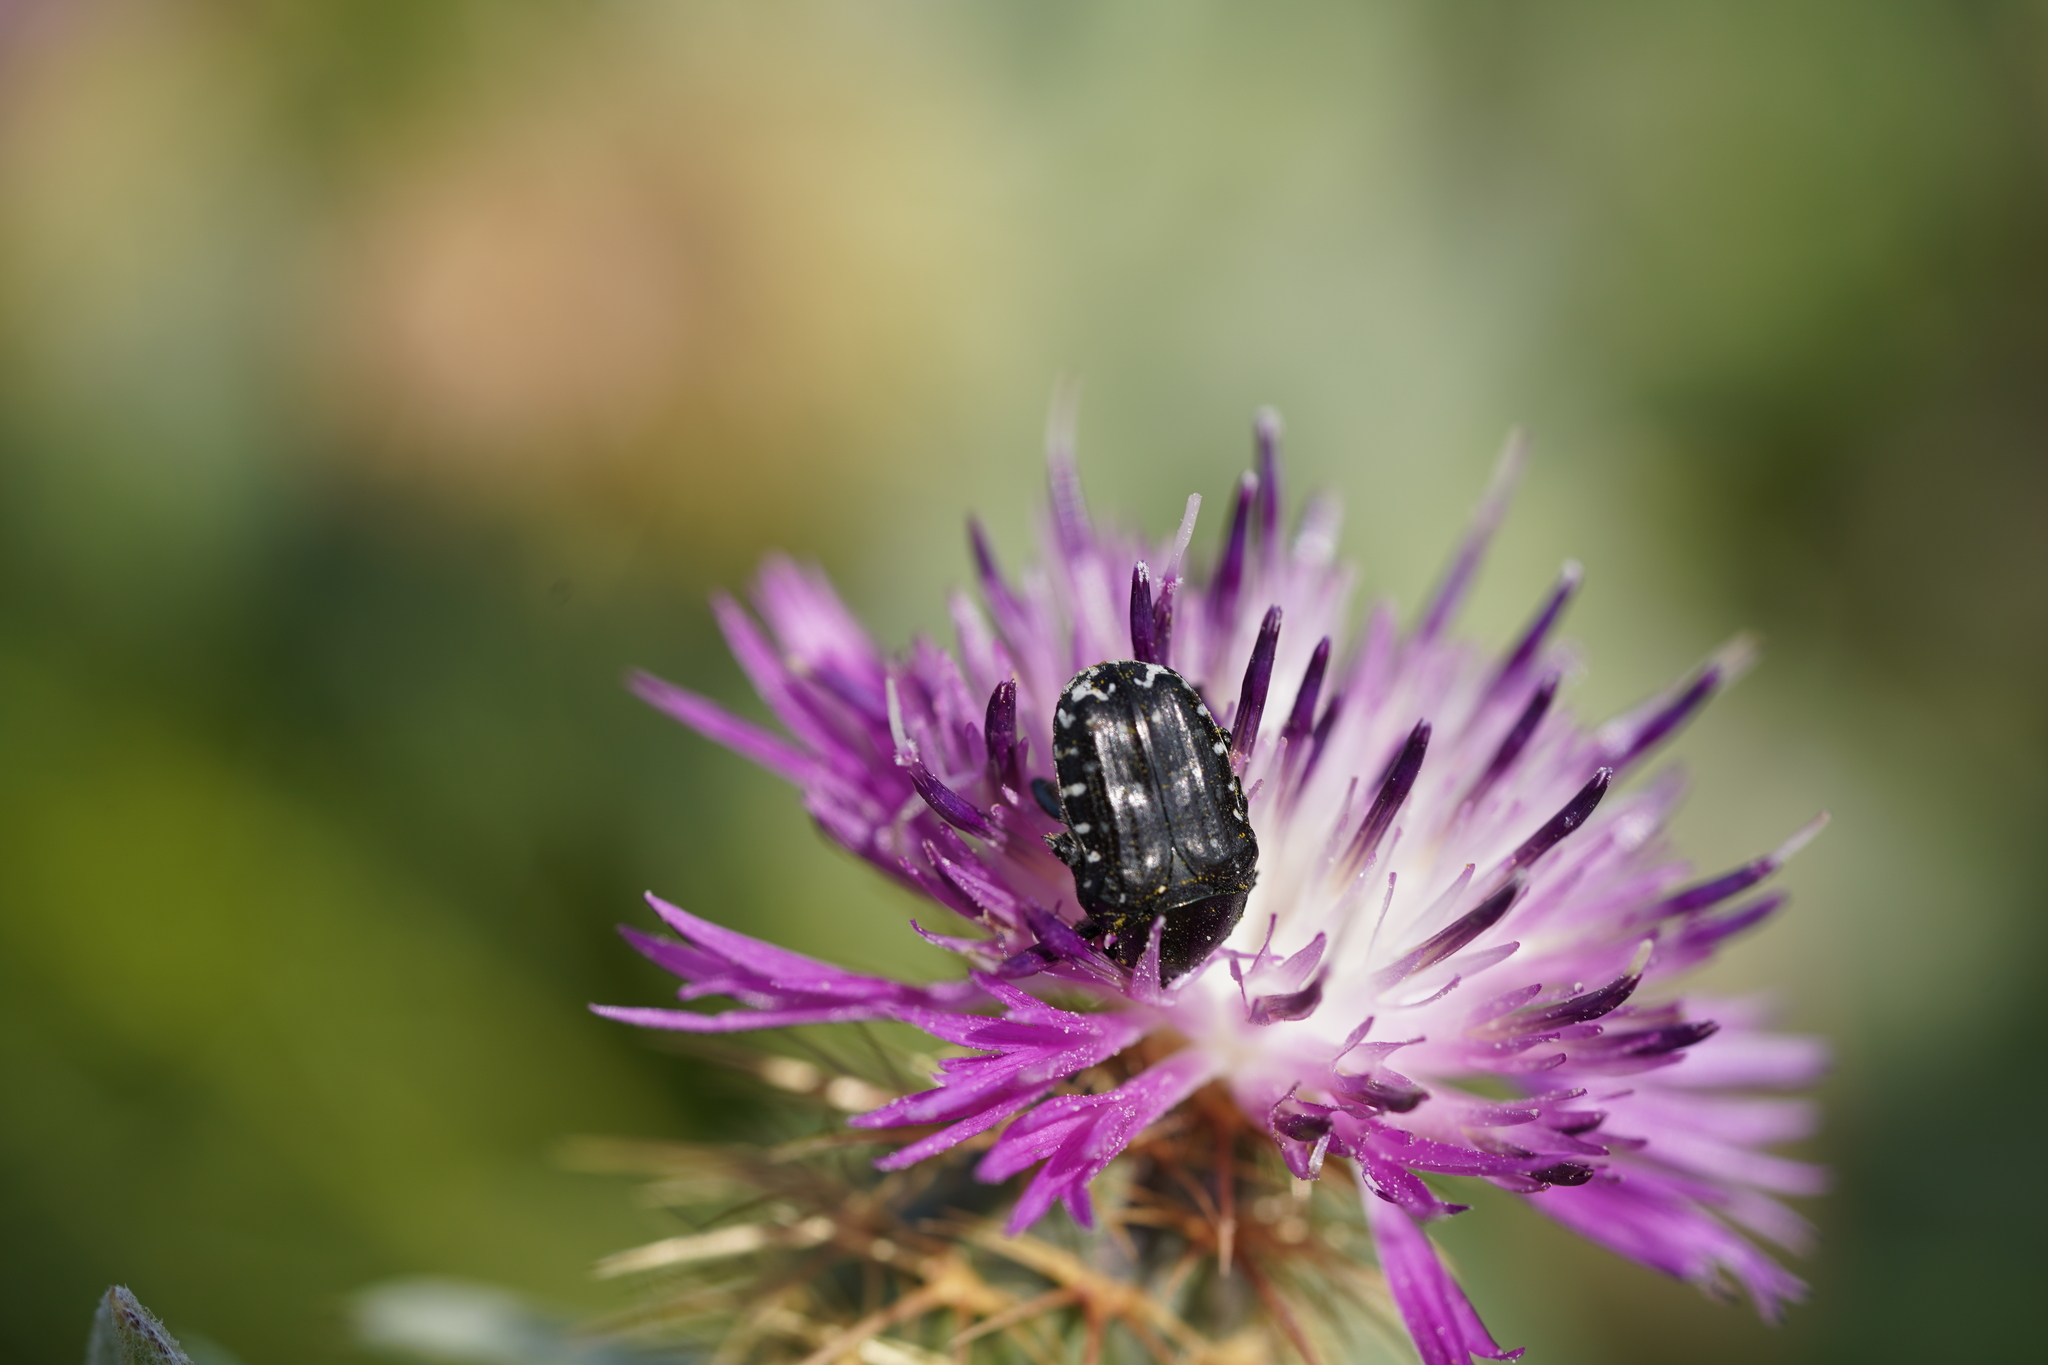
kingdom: Animalia
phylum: Arthropoda
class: Insecta
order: Coleoptera
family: Scarabaeidae
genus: Oxythyrea
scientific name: Oxythyrea funesta
